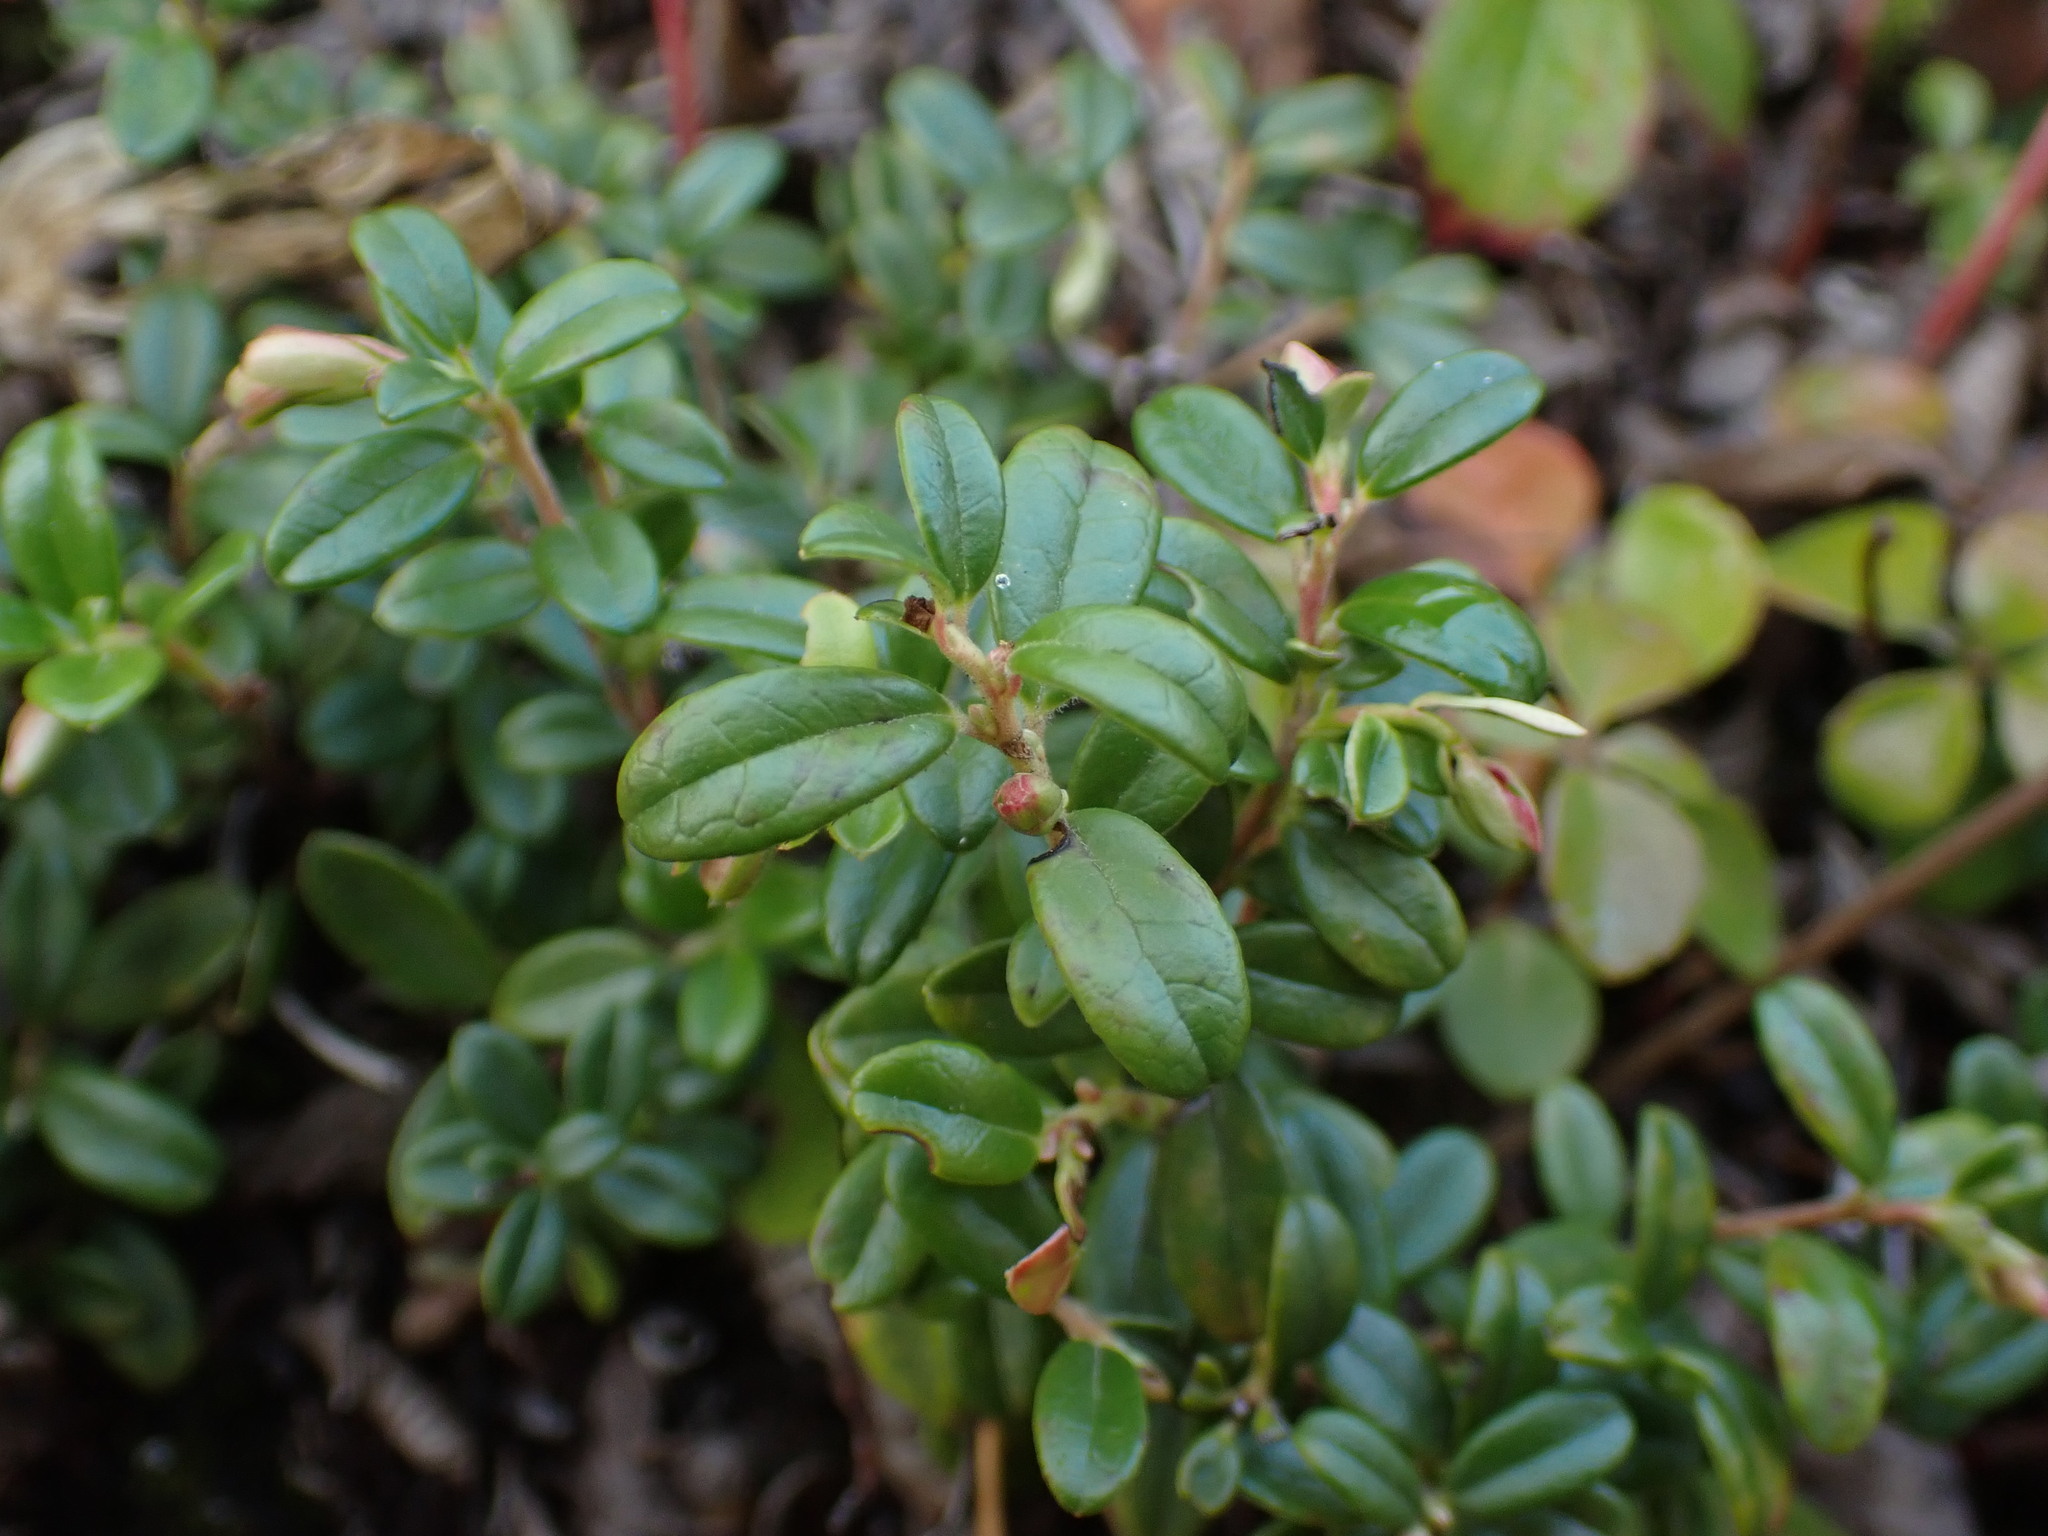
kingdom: Plantae
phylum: Tracheophyta
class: Magnoliopsida
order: Ericales
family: Ericaceae
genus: Vaccinium
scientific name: Vaccinium vitis-idaea
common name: Cowberry
